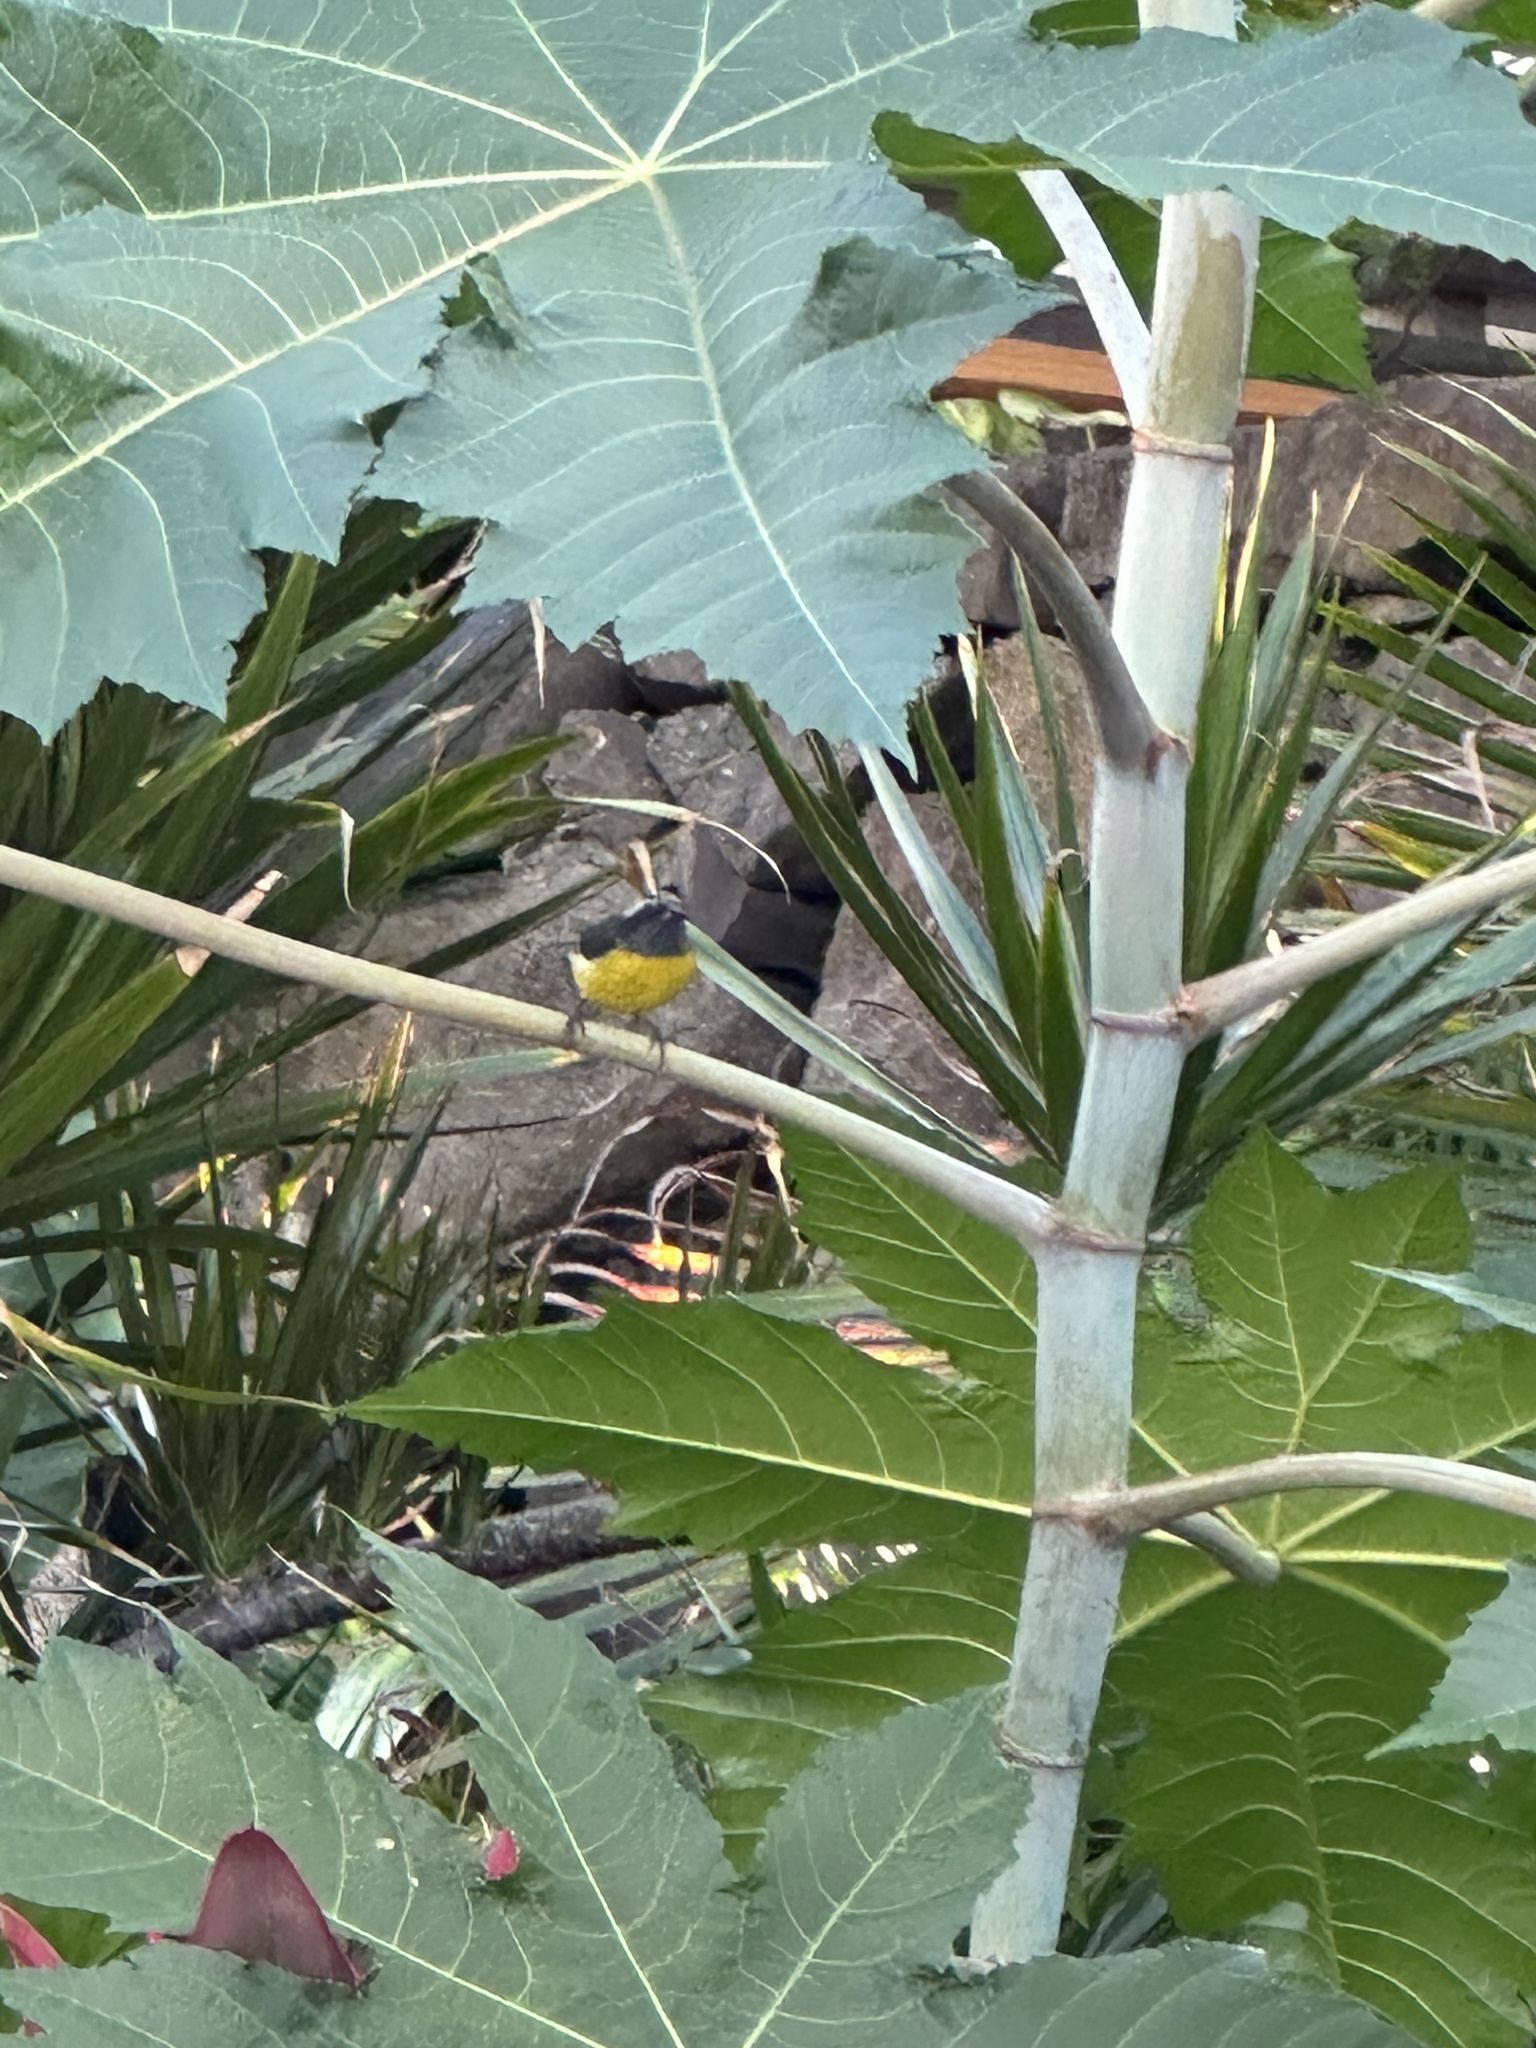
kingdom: Animalia
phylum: Chordata
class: Aves
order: Passeriformes
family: Thraupidae
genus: Coereba
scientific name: Coereba flaveola
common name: Bananaquit
